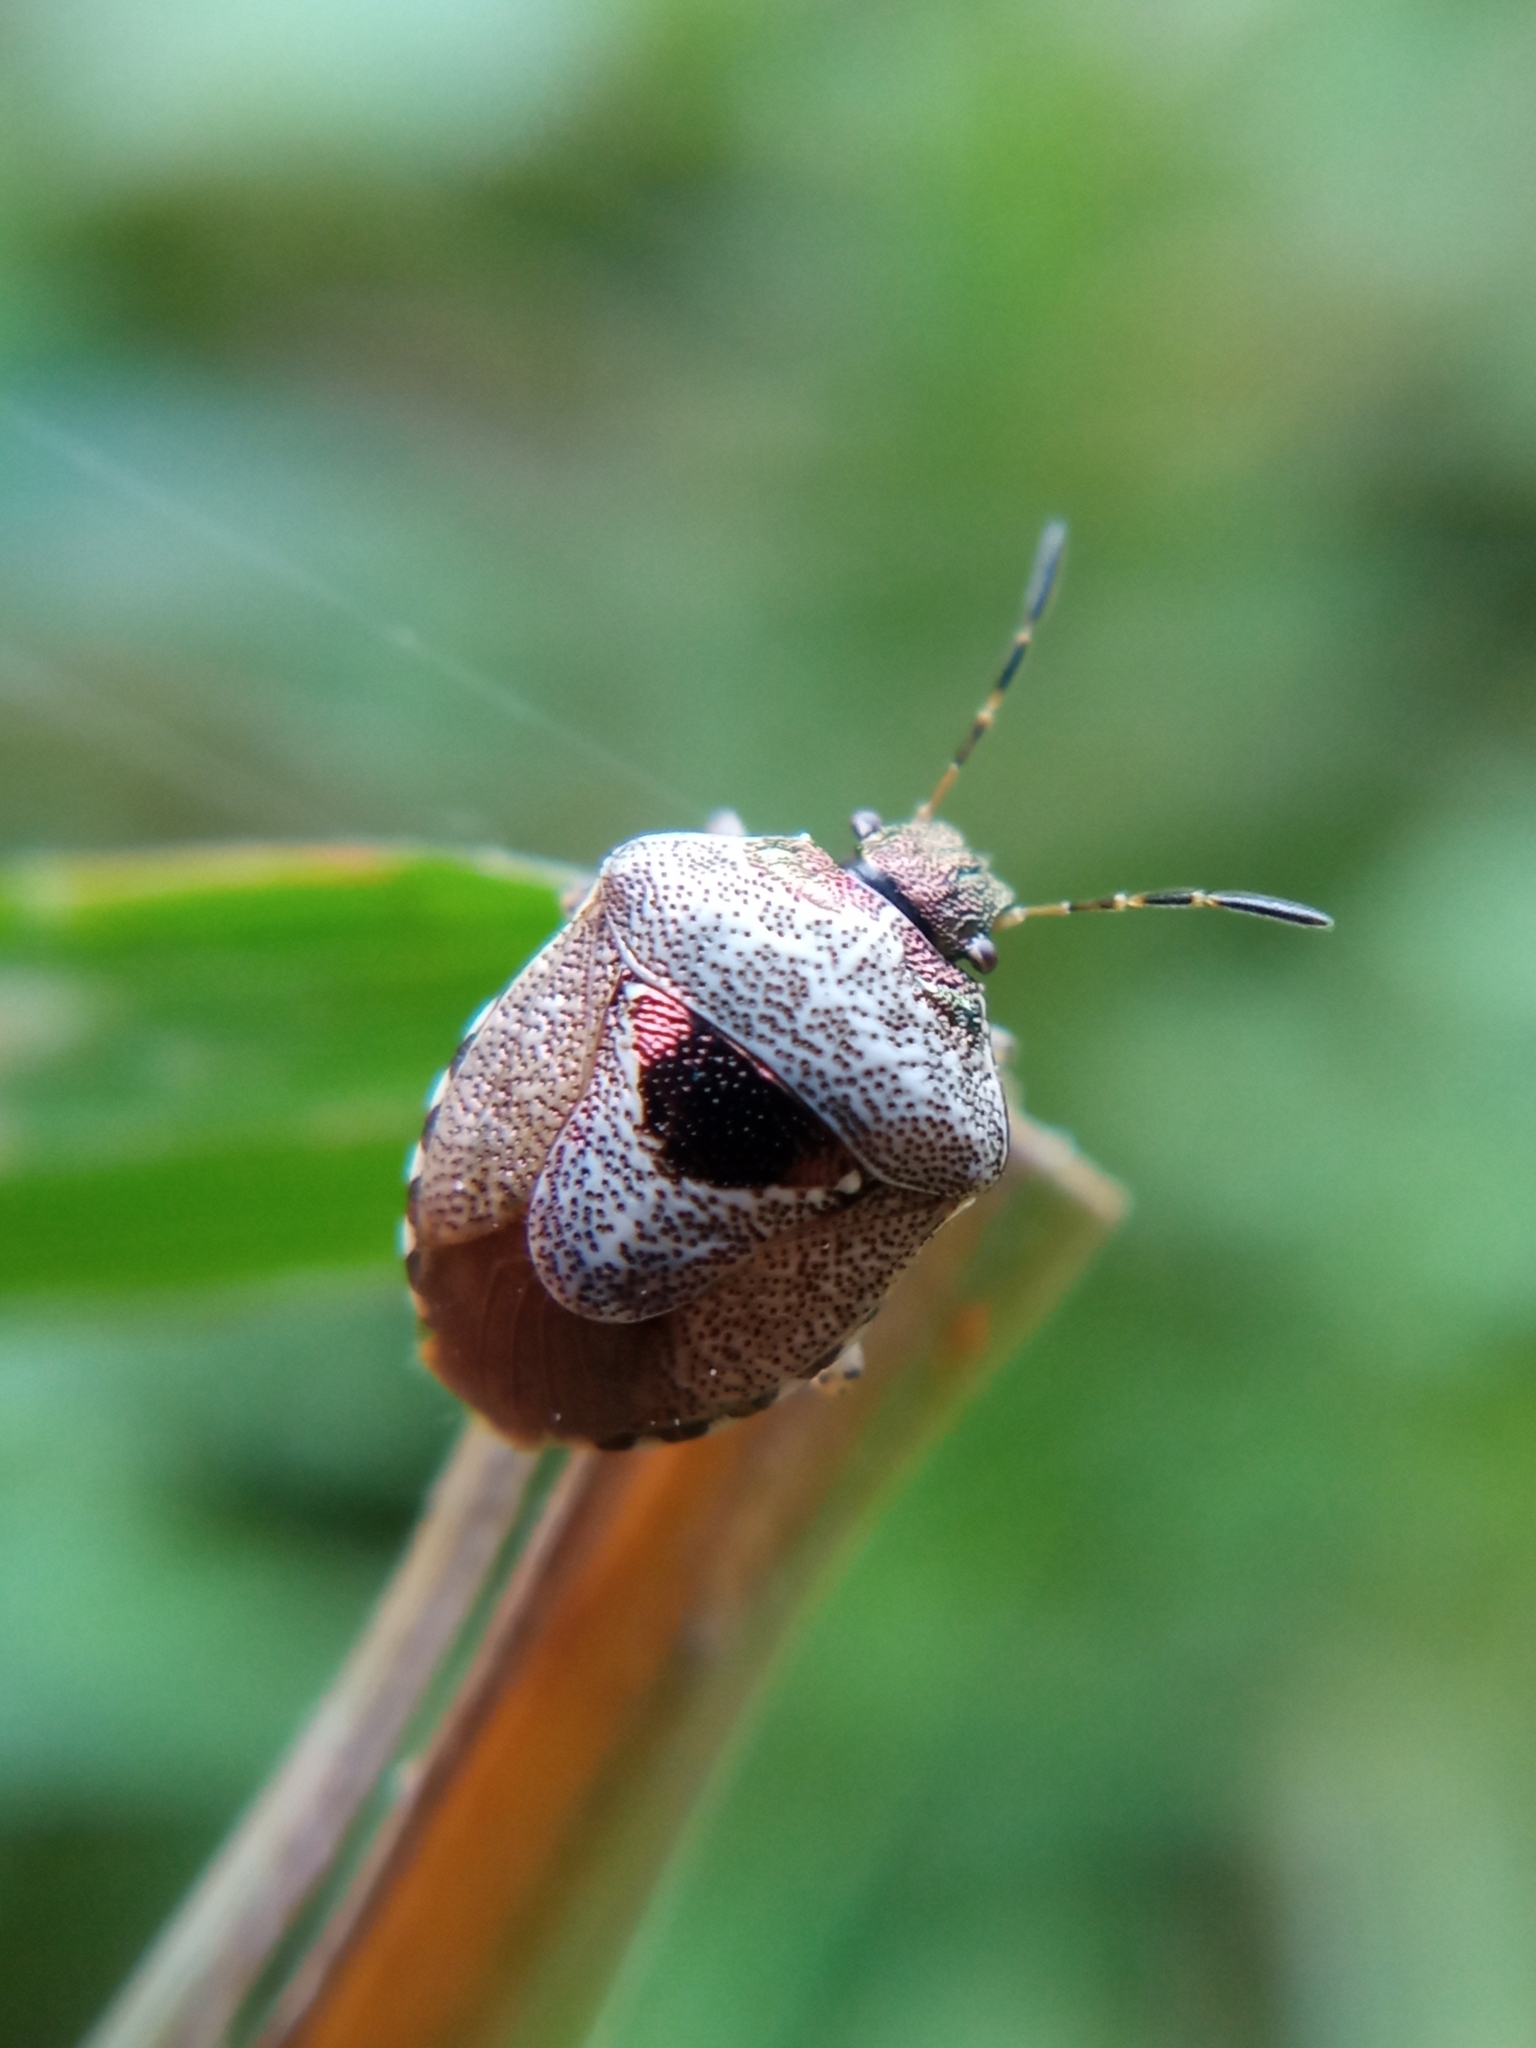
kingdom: Animalia
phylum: Arthropoda
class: Insecta
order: Hemiptera
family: Pentatomidae
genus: Eysarcoris
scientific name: Eysarcoris venustissimus
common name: Woundwort shieldbug
